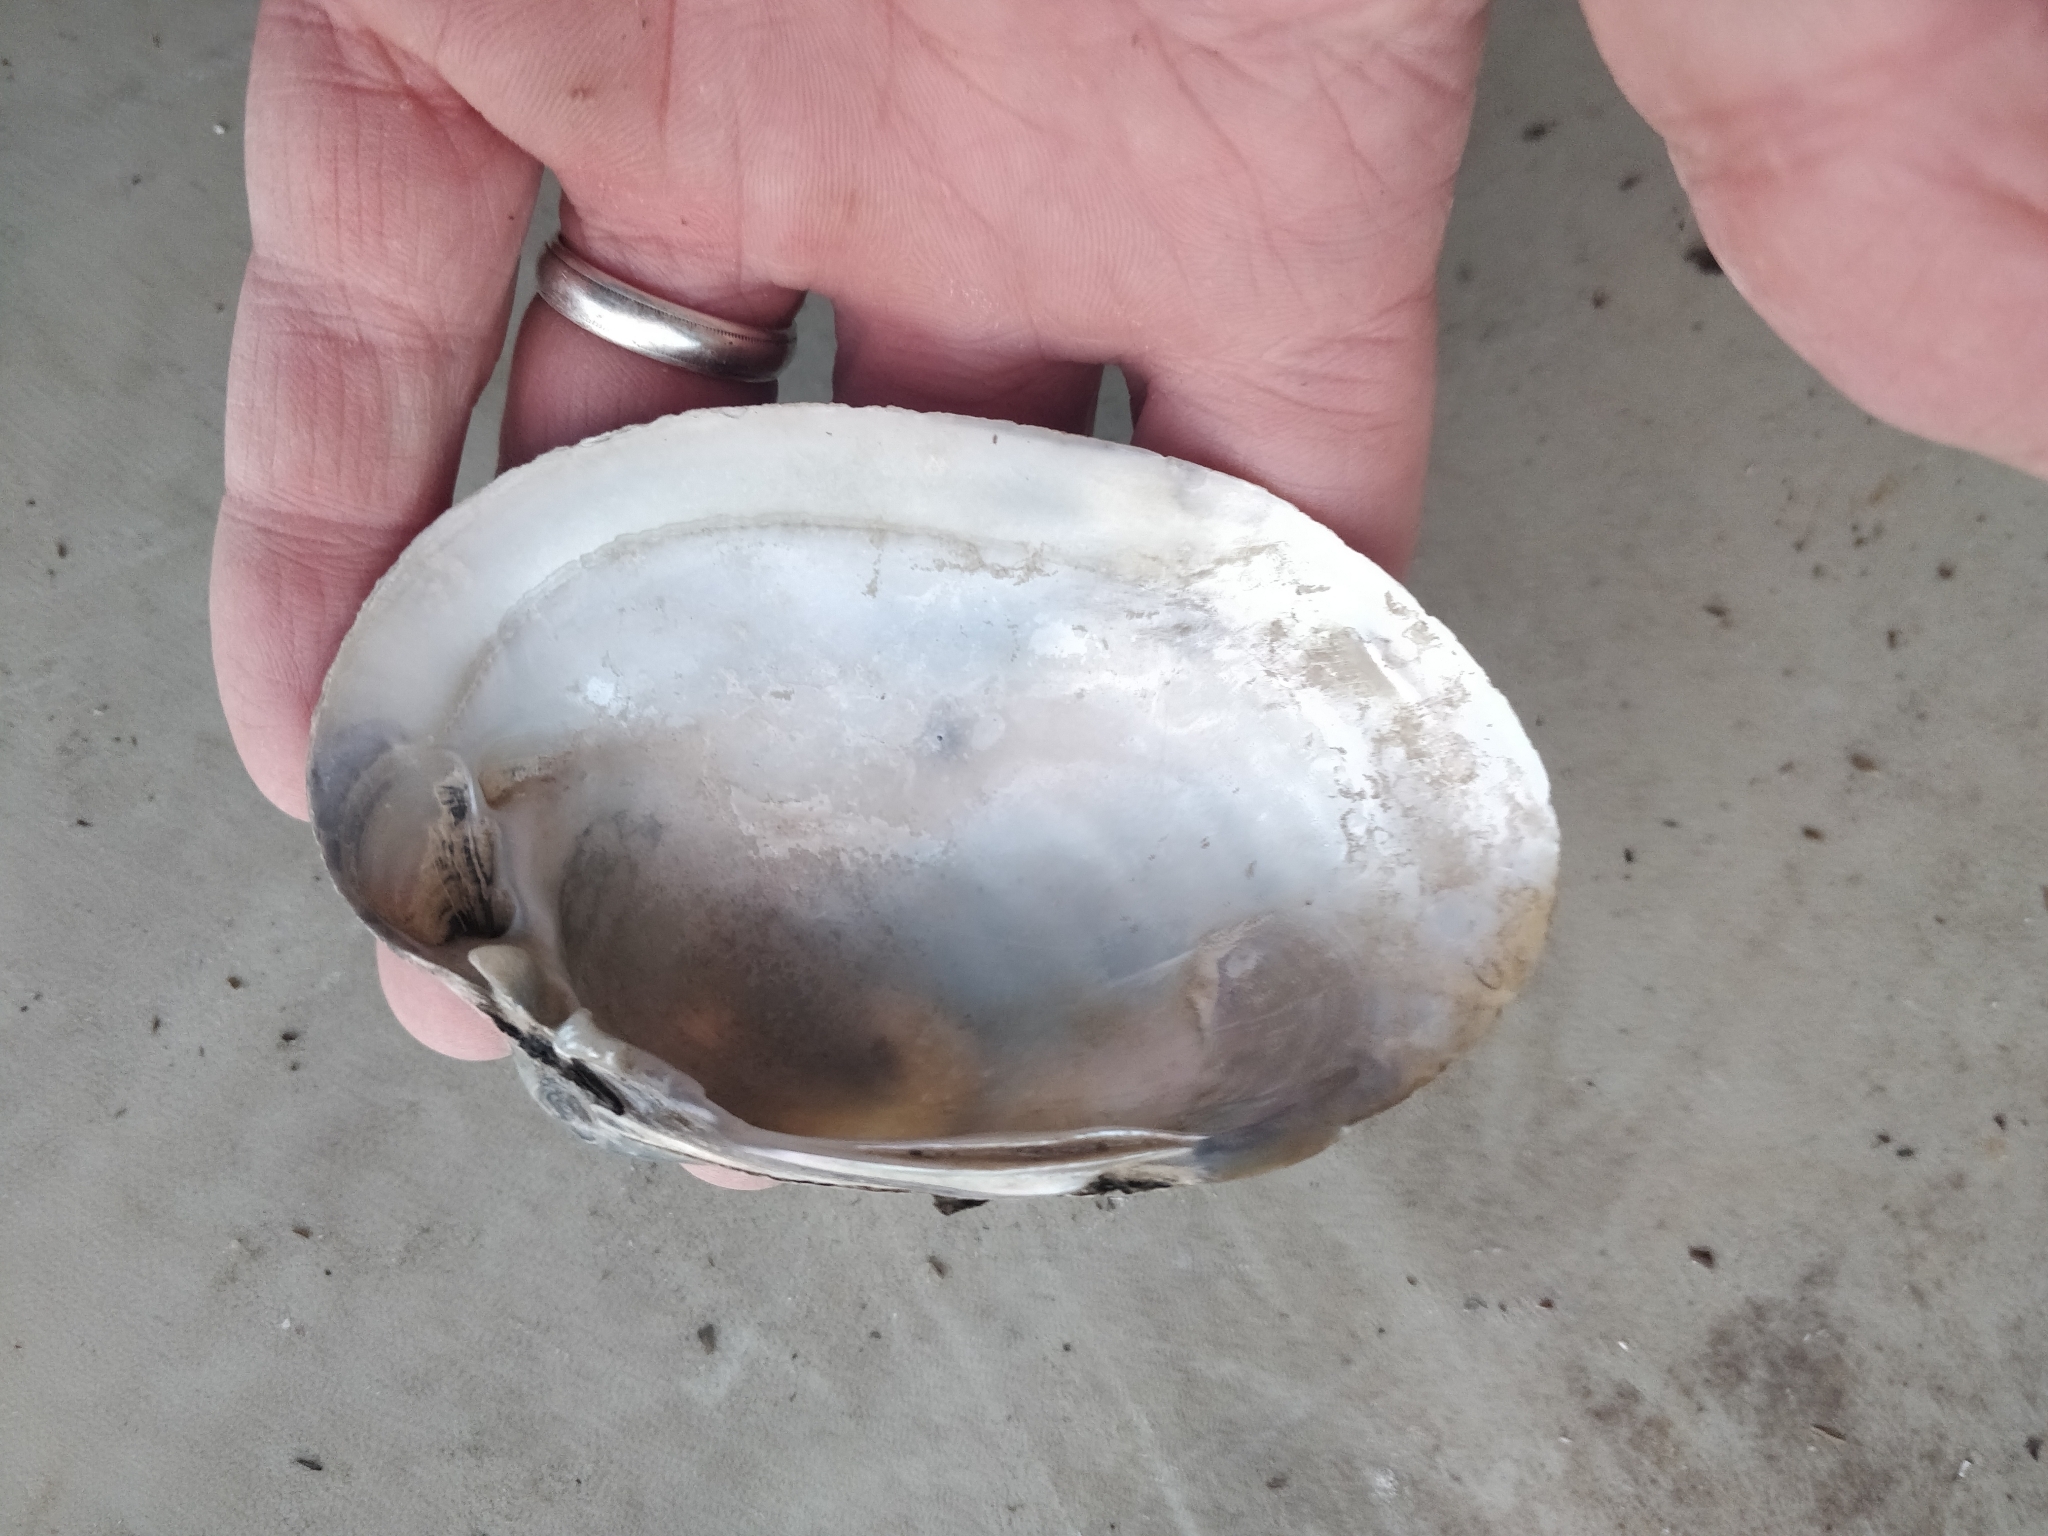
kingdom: Animalia
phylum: Mollusca
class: Bivalvia
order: Unionida
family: Unionidae
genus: Lampsilis
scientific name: Lampsilis cardium
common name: Plain pocketbook
